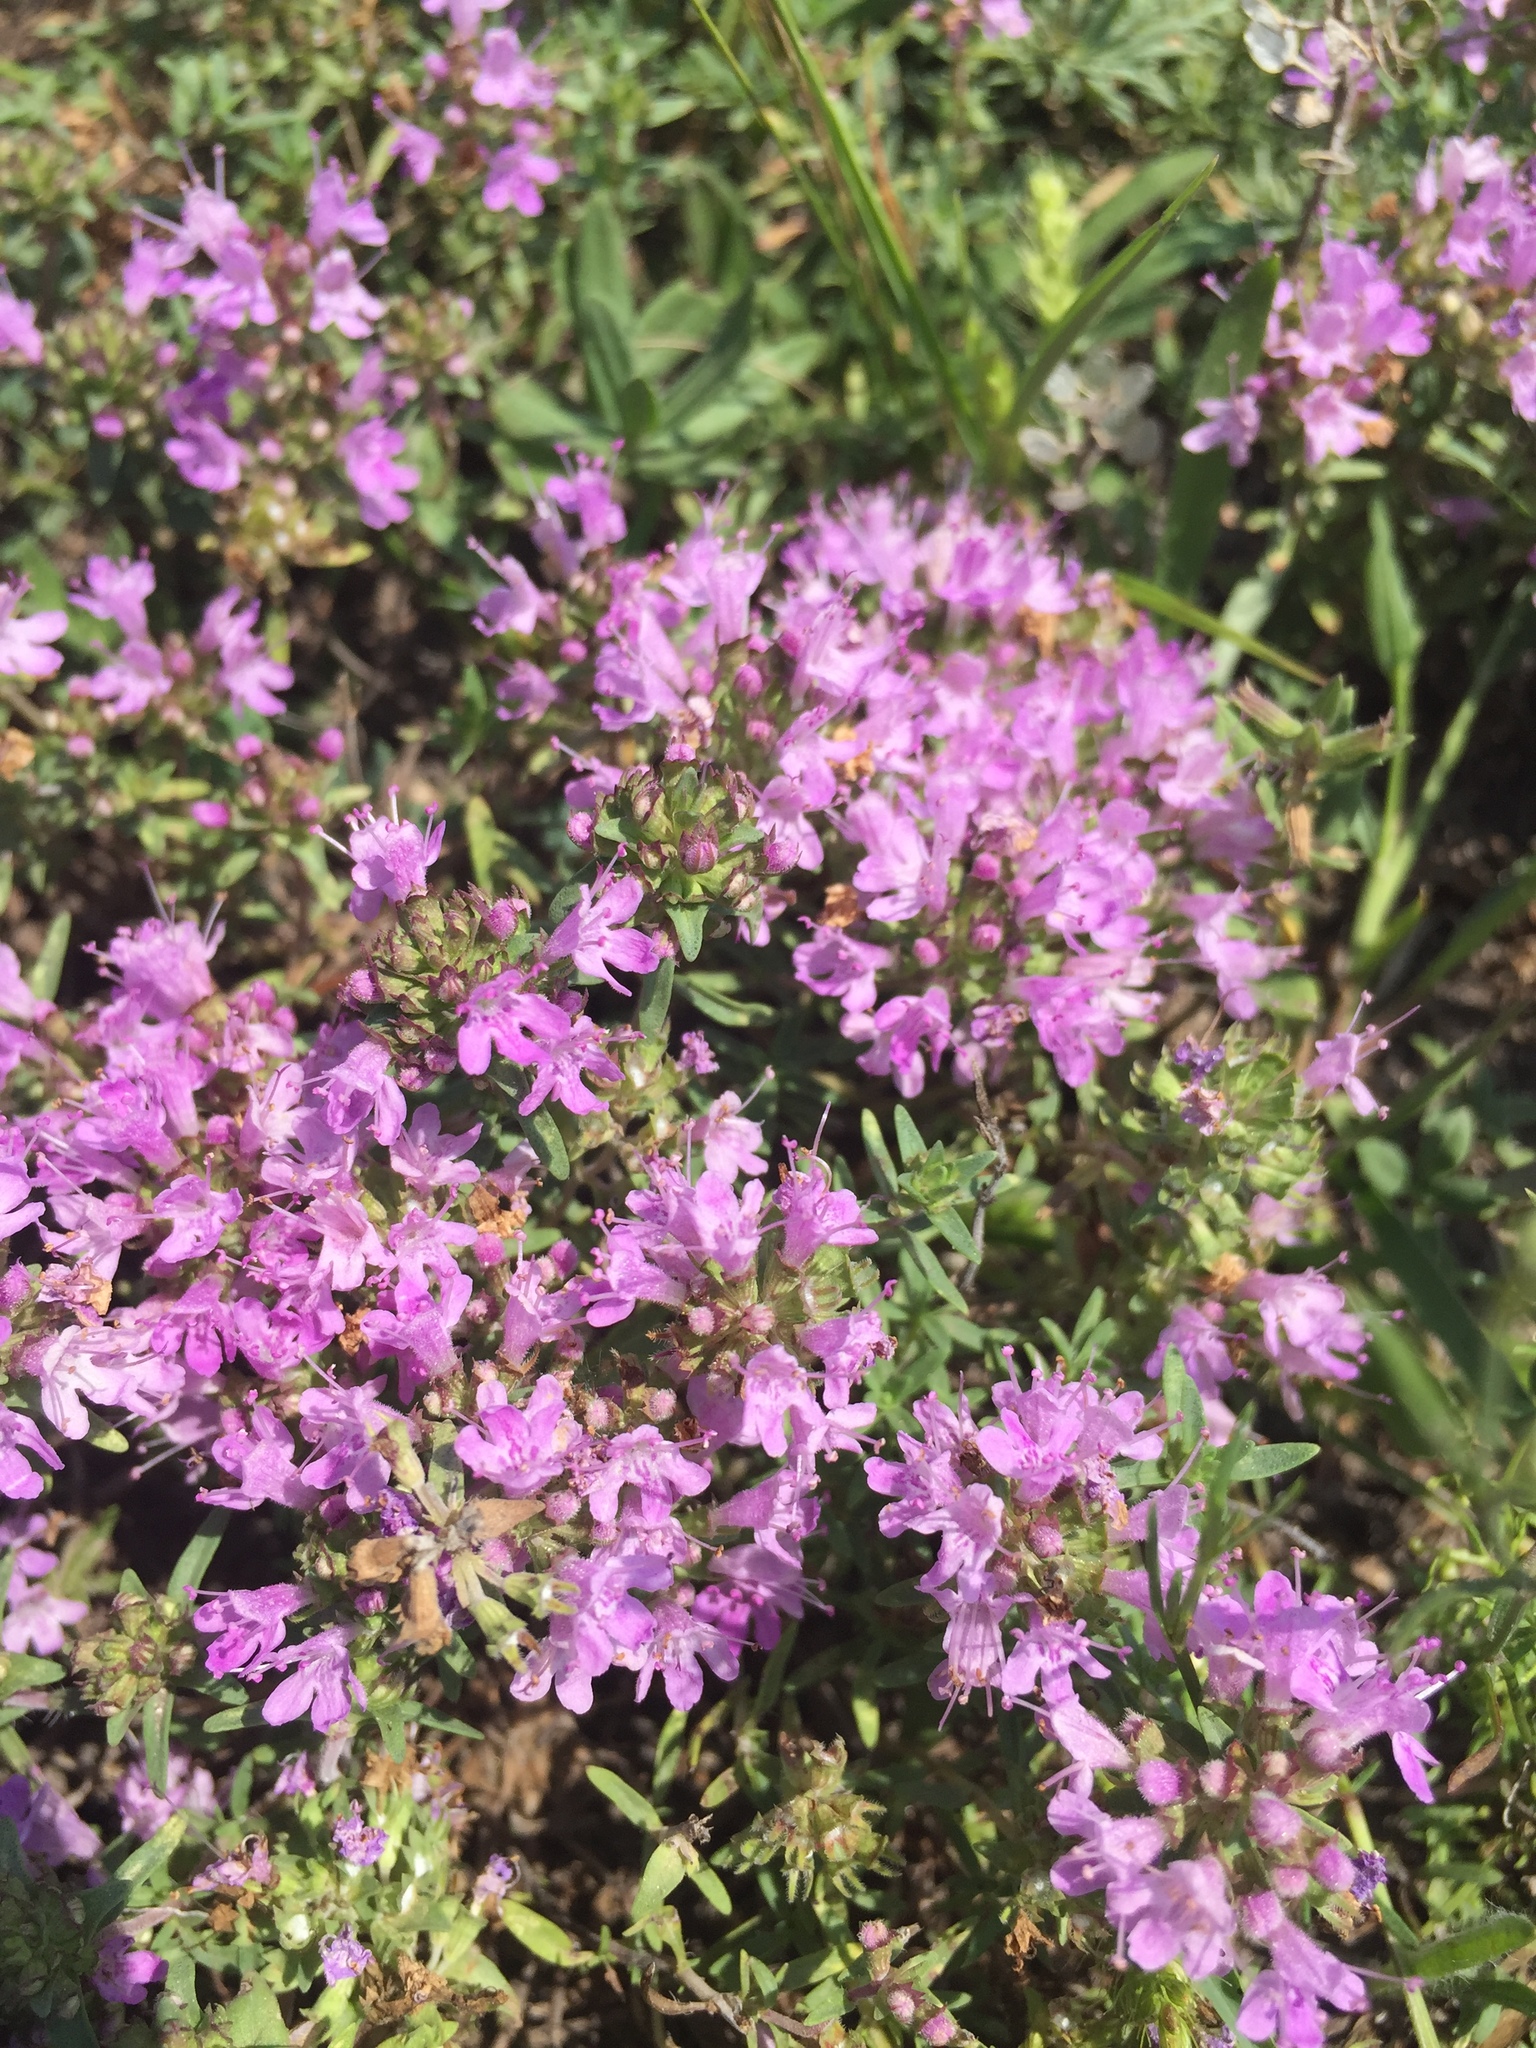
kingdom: Plantae
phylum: Tracheophyta
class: Magnoliopsida
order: Lamiales
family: Lamiaceae
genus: Thymus
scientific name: Thymus calcareus
